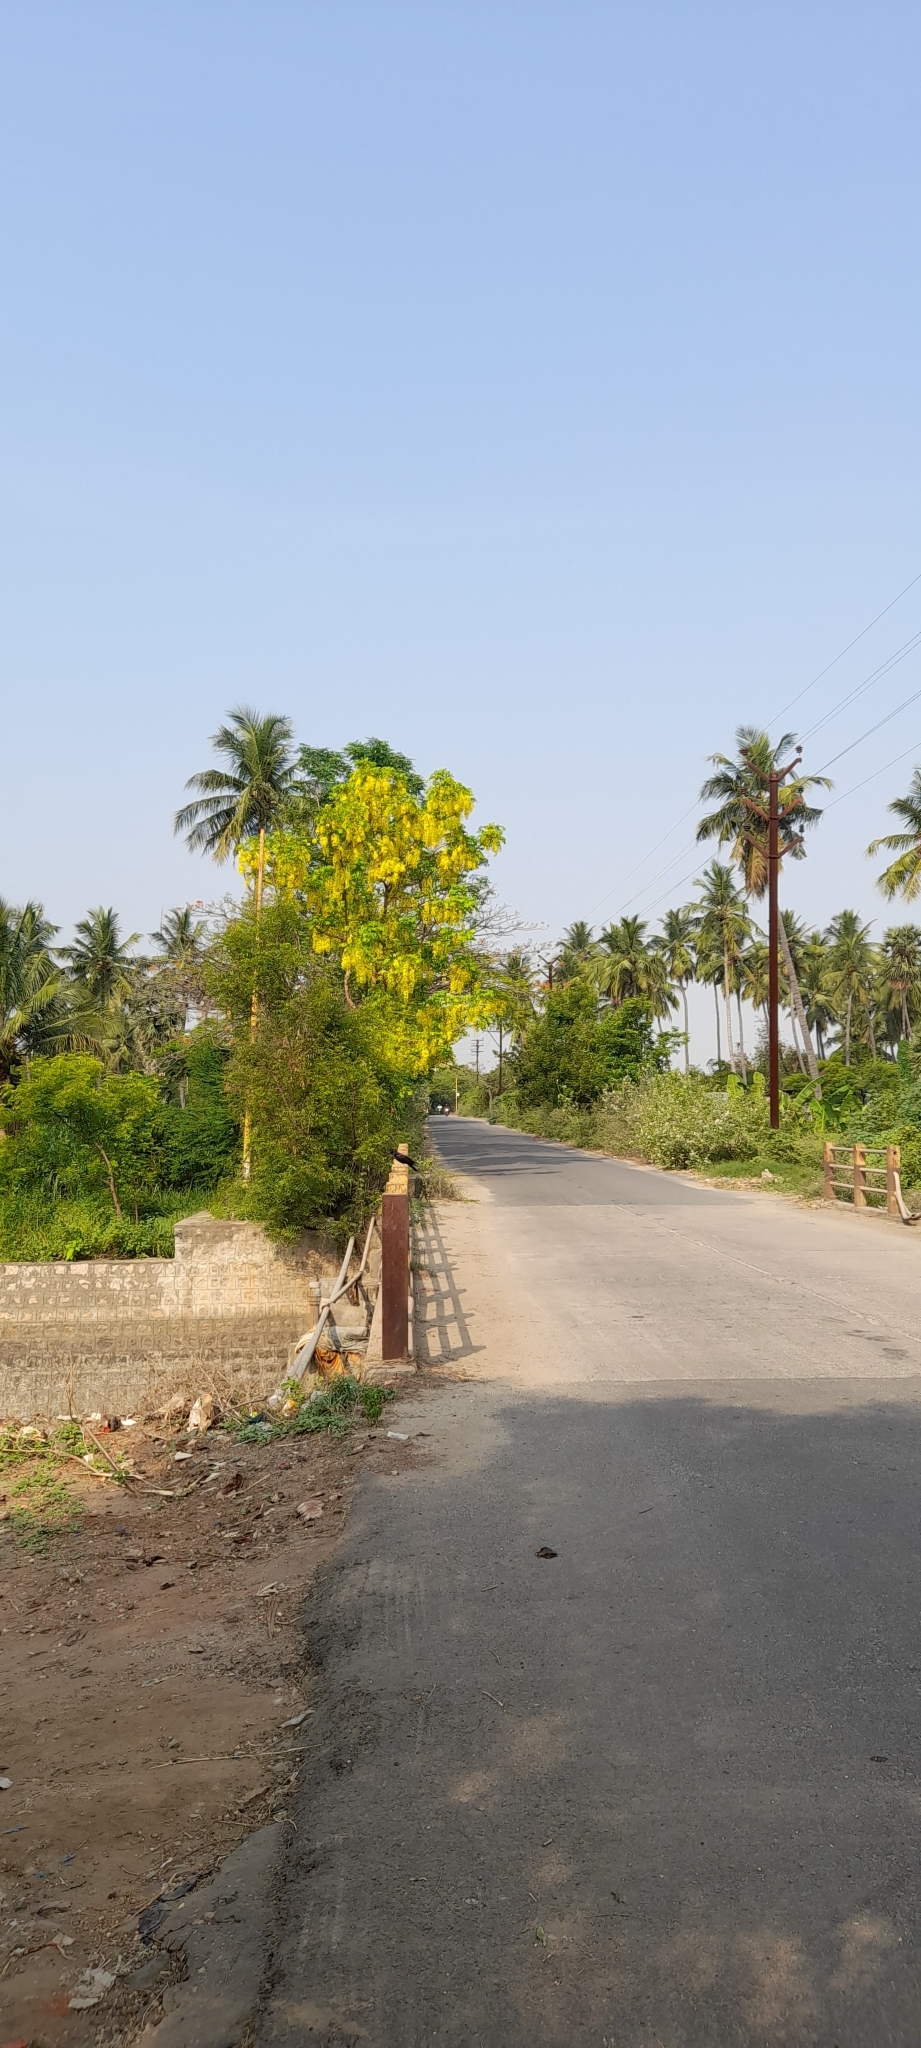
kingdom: Plantae
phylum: Tracheophyta
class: Magnoliopsida
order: Fabales
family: Fabaceae
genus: Cassia
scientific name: Cassia fistula
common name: Golden shower
